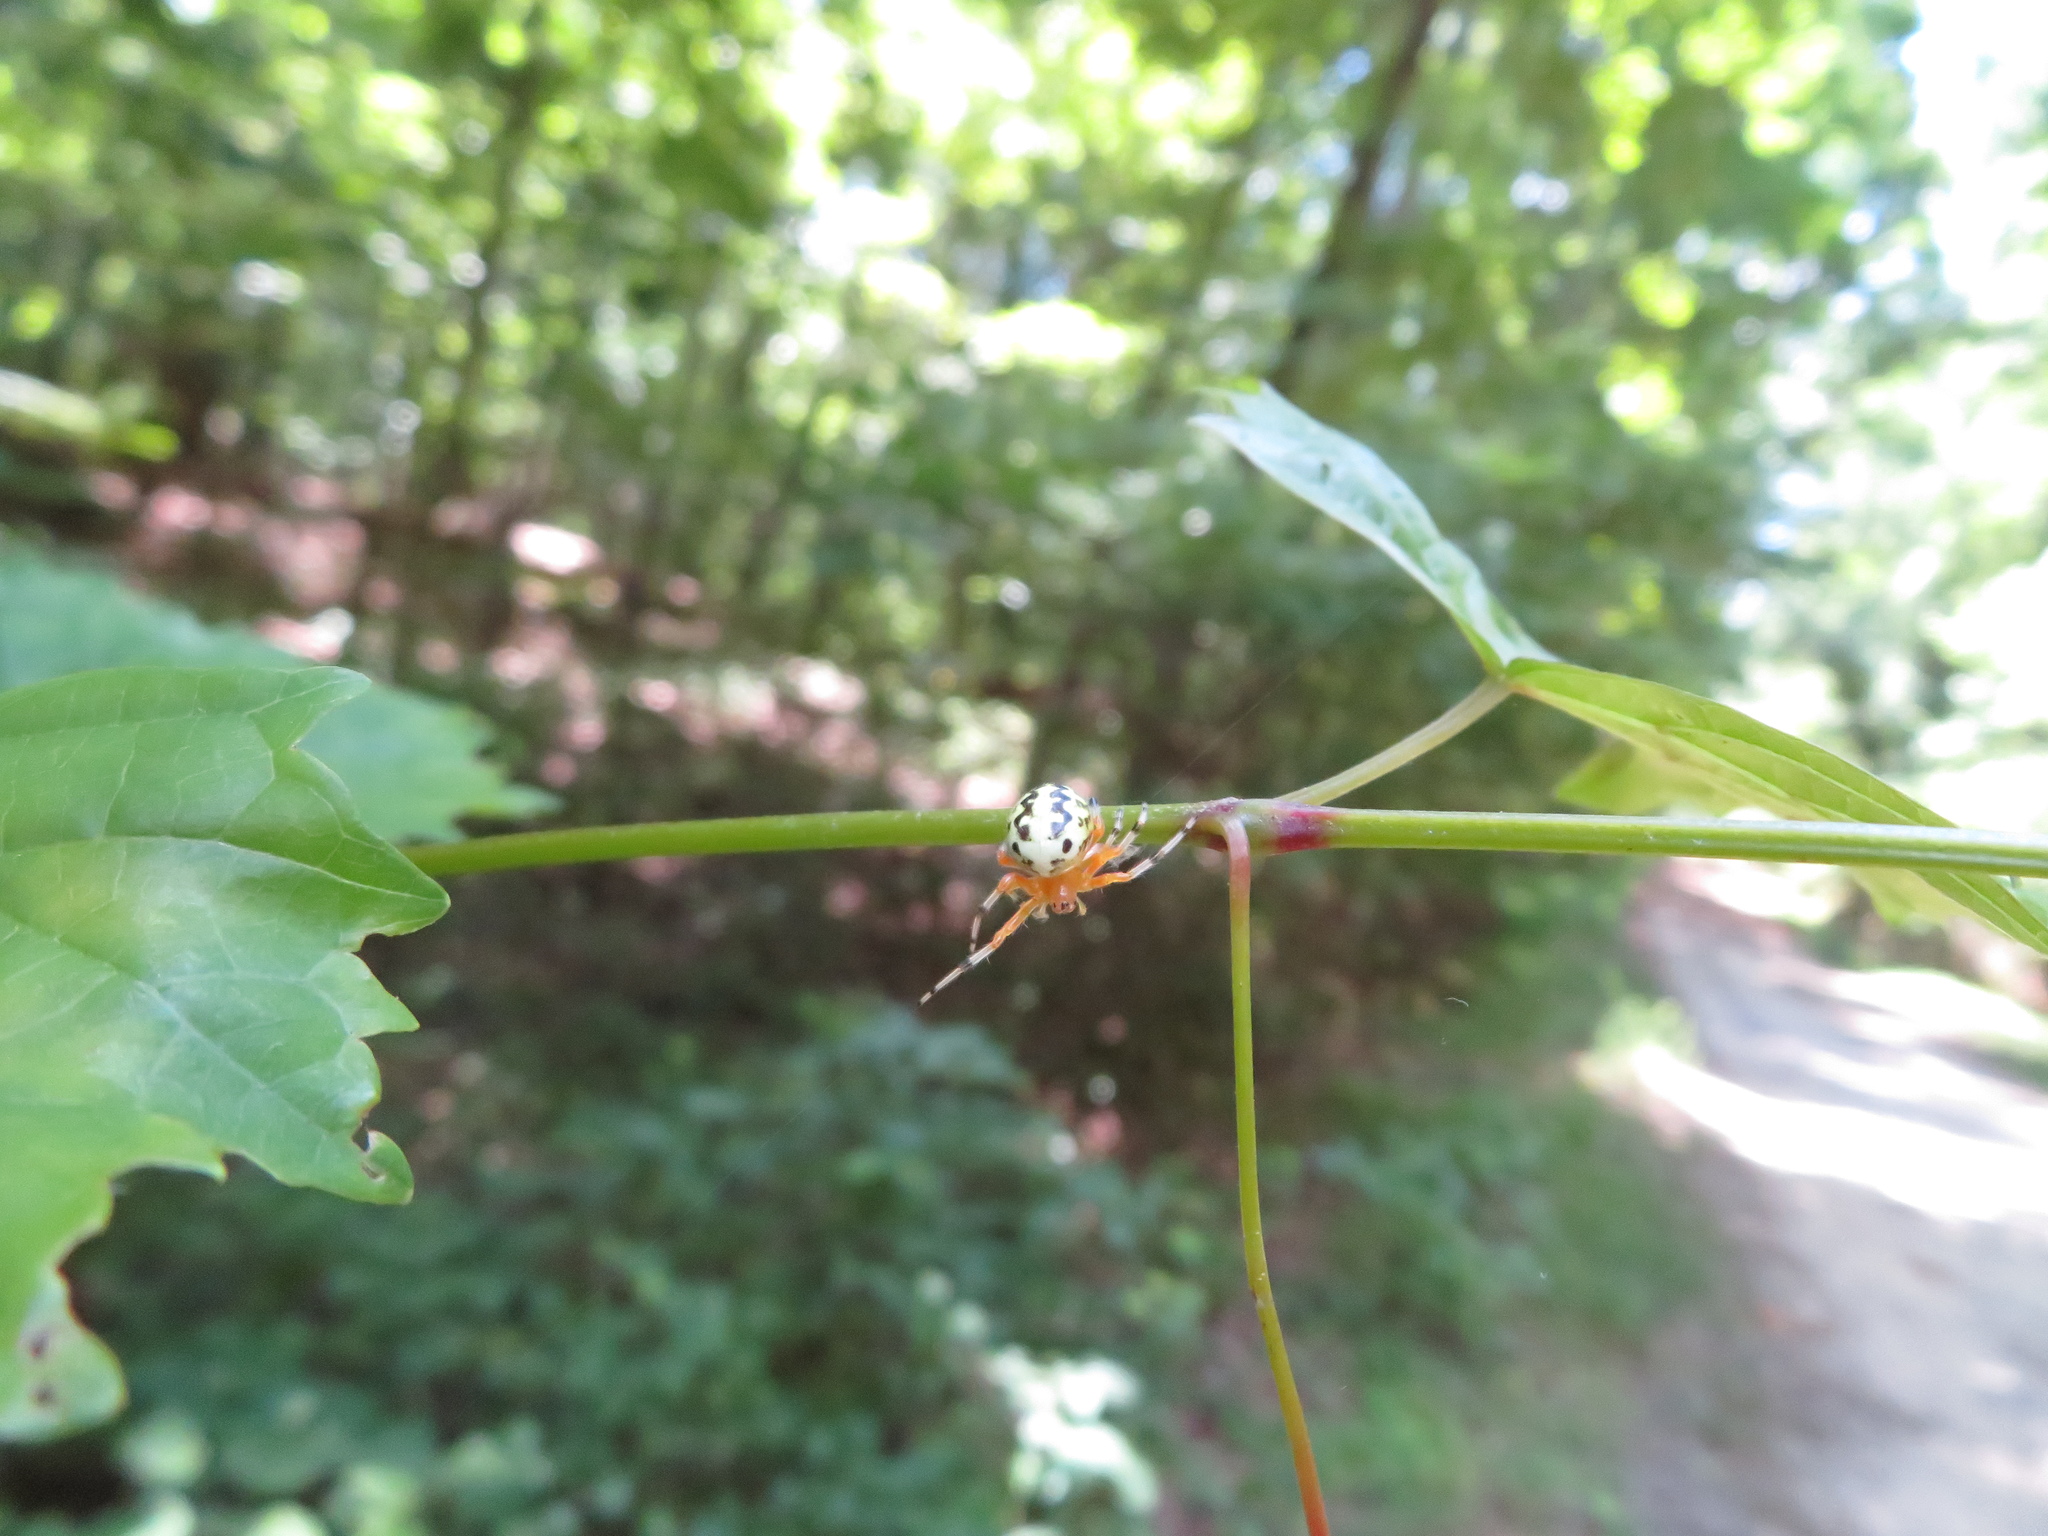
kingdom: Animalia
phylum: Arthropoda
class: Arachnida
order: Araneae
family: Araneidae
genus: Araneus
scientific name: Araneus marmoreus
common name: Marbled orbweaver
